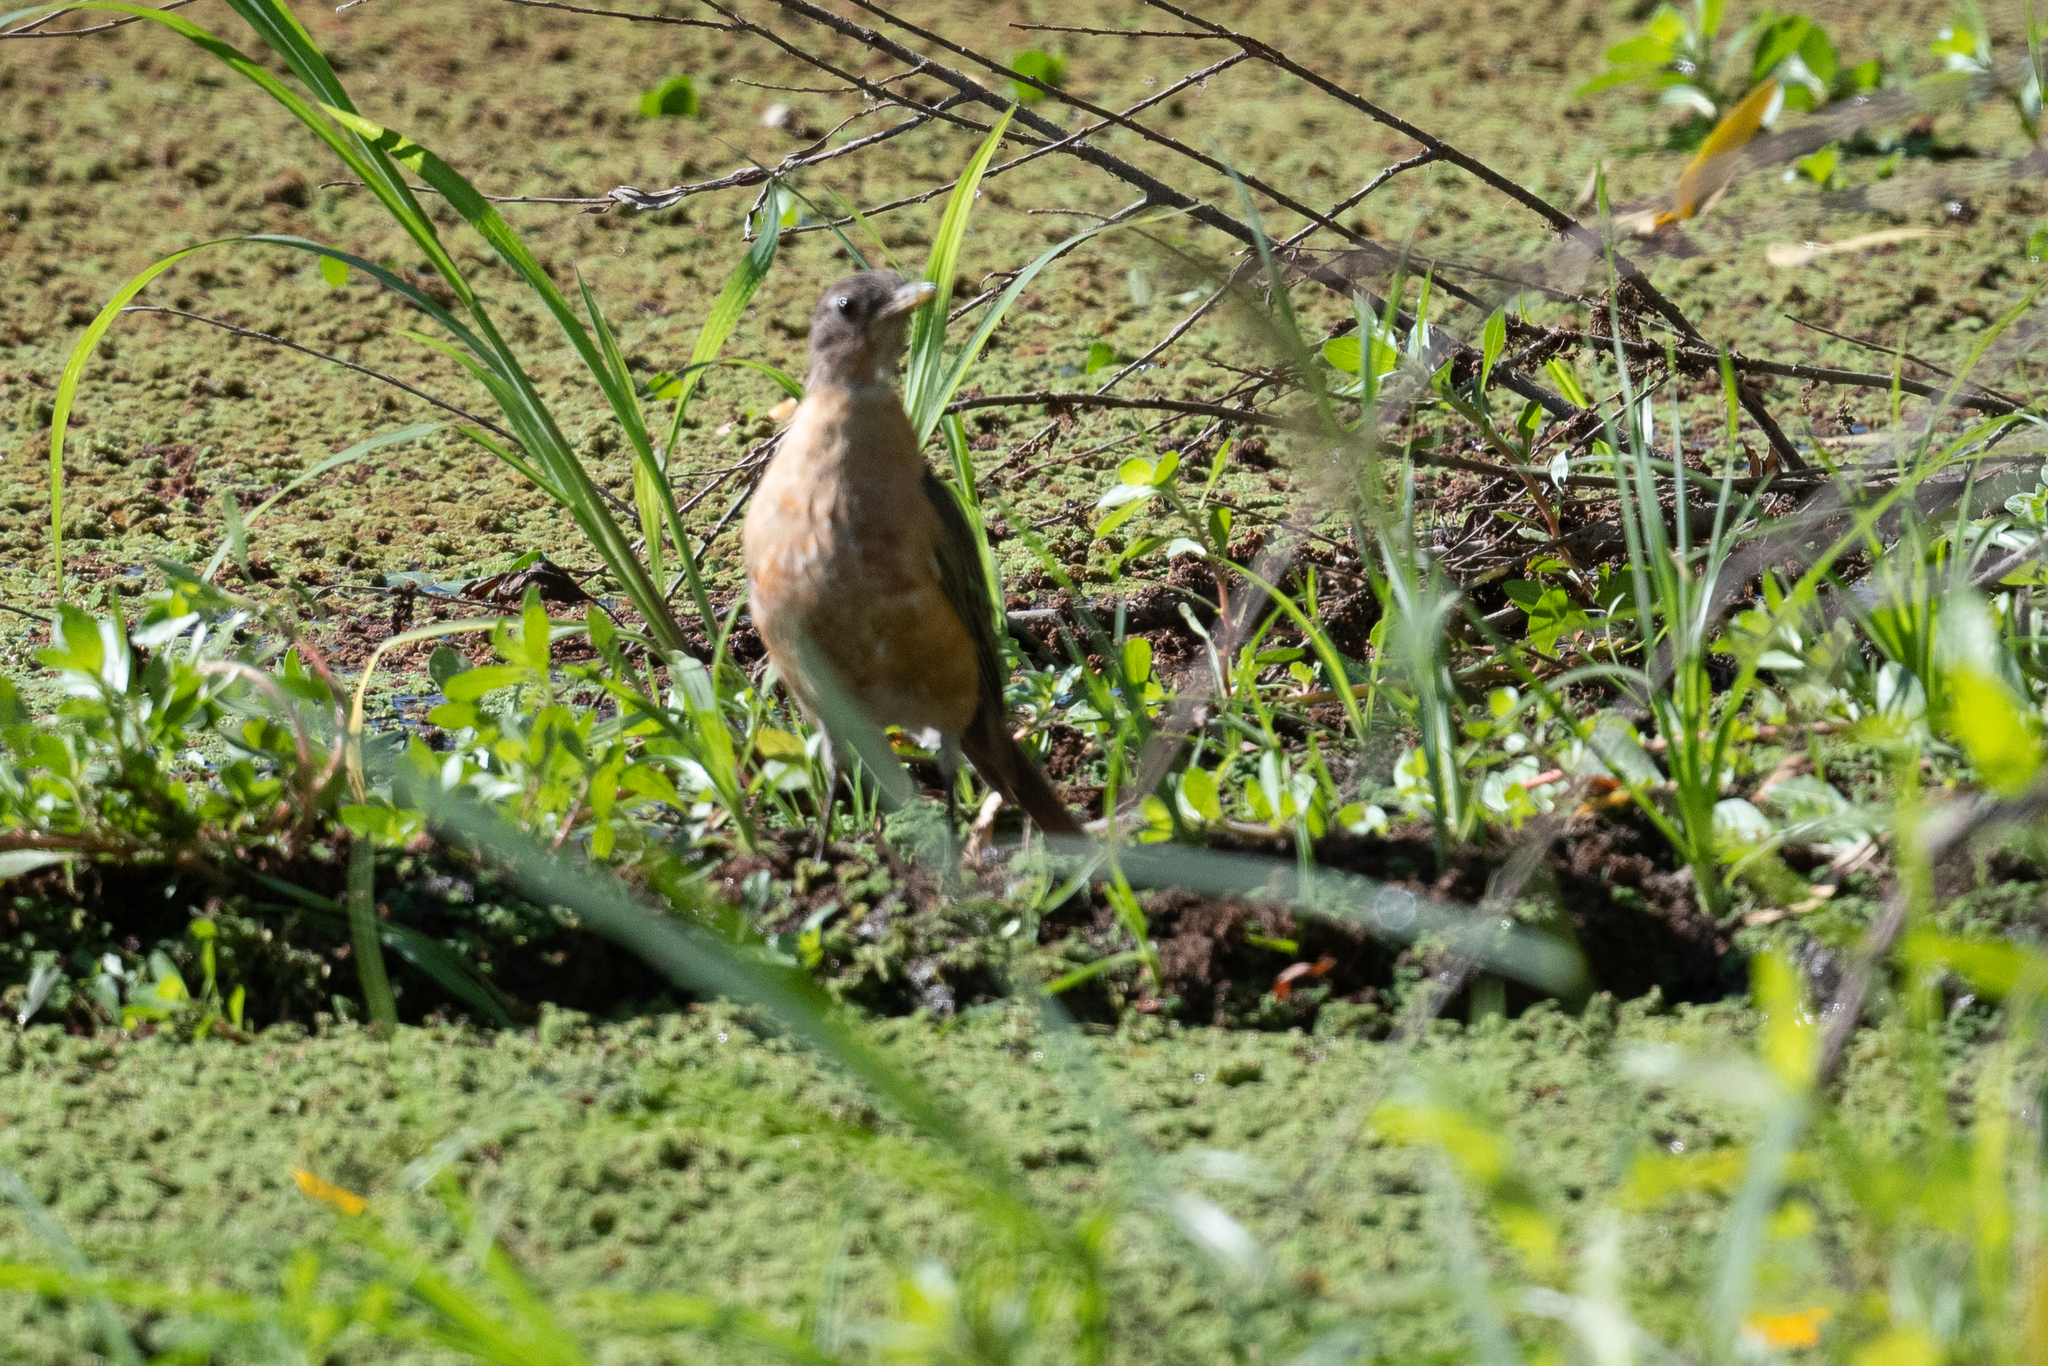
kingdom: Animalia
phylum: Chordata
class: Aves
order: Passeriformes
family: Turdidae
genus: Turdus
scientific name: Turdus migratorius
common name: American robin
